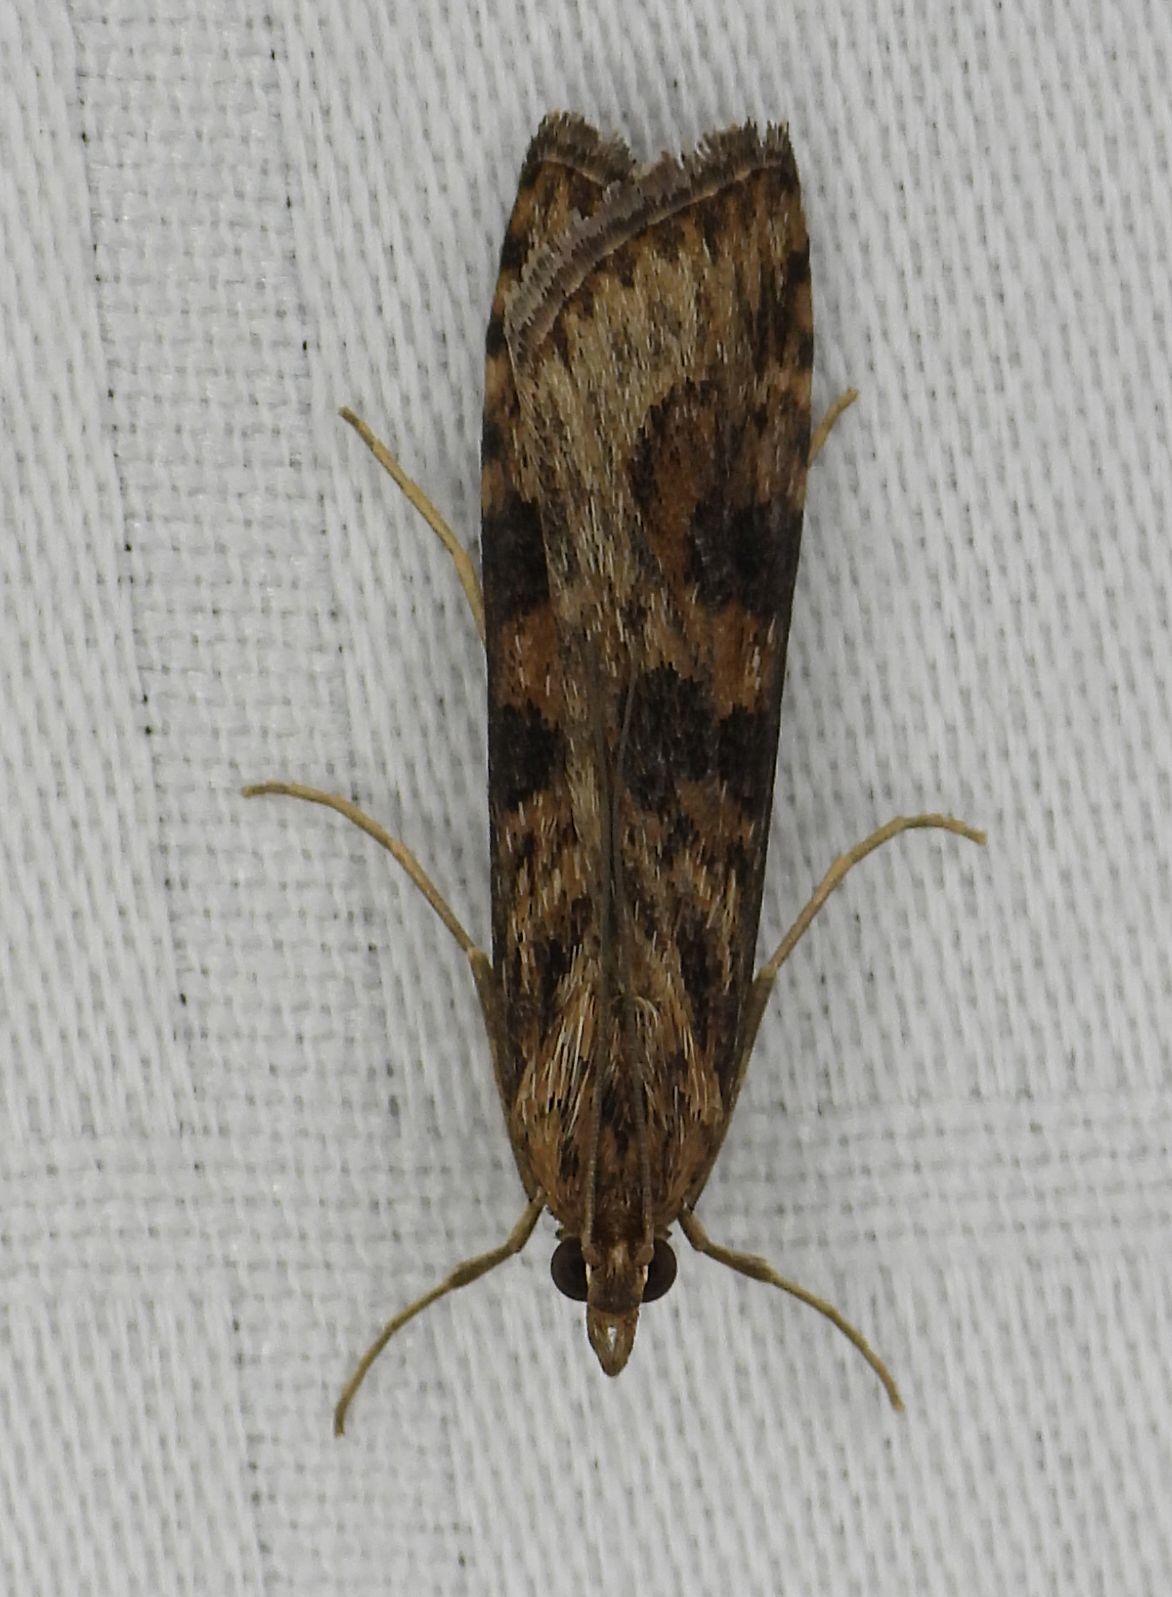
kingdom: Animalia
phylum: Arthropoda
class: Insecta
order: Lepidoptera
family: Crambidae
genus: Nomophila
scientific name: Nomophila nearctica
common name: American rush veneer
